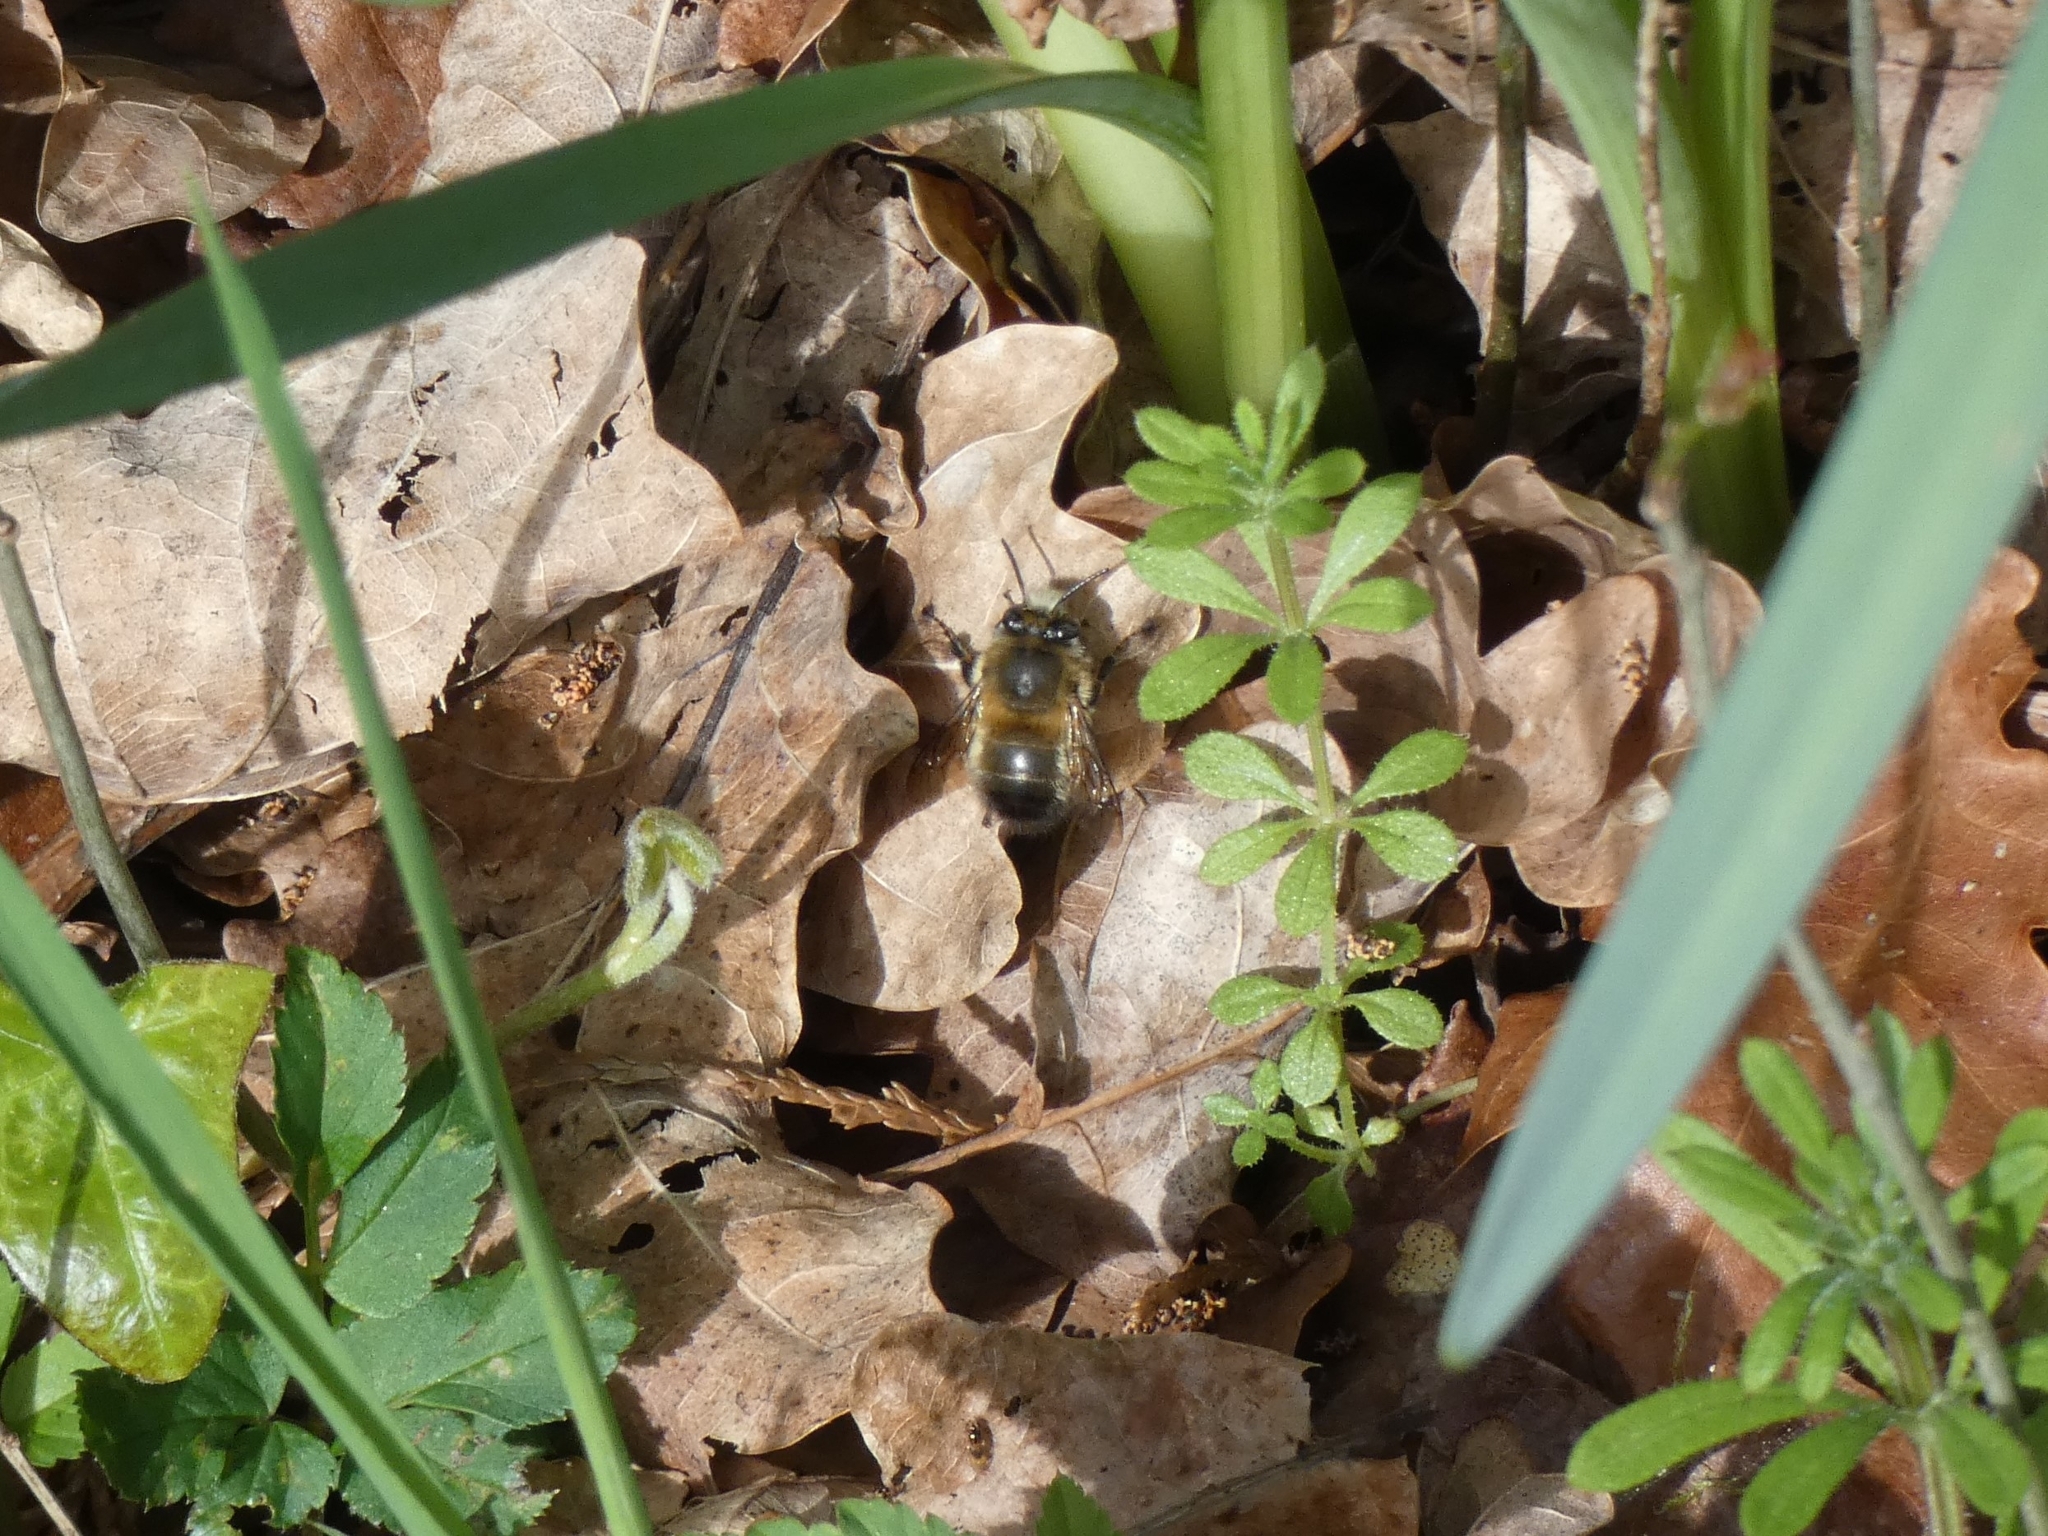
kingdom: Animalia
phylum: Arthropoda
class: Insecta
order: Hymenoptera
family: Apidae
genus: Anthophora
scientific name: Anthophora plumipes
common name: Hairy-footed flower bee
